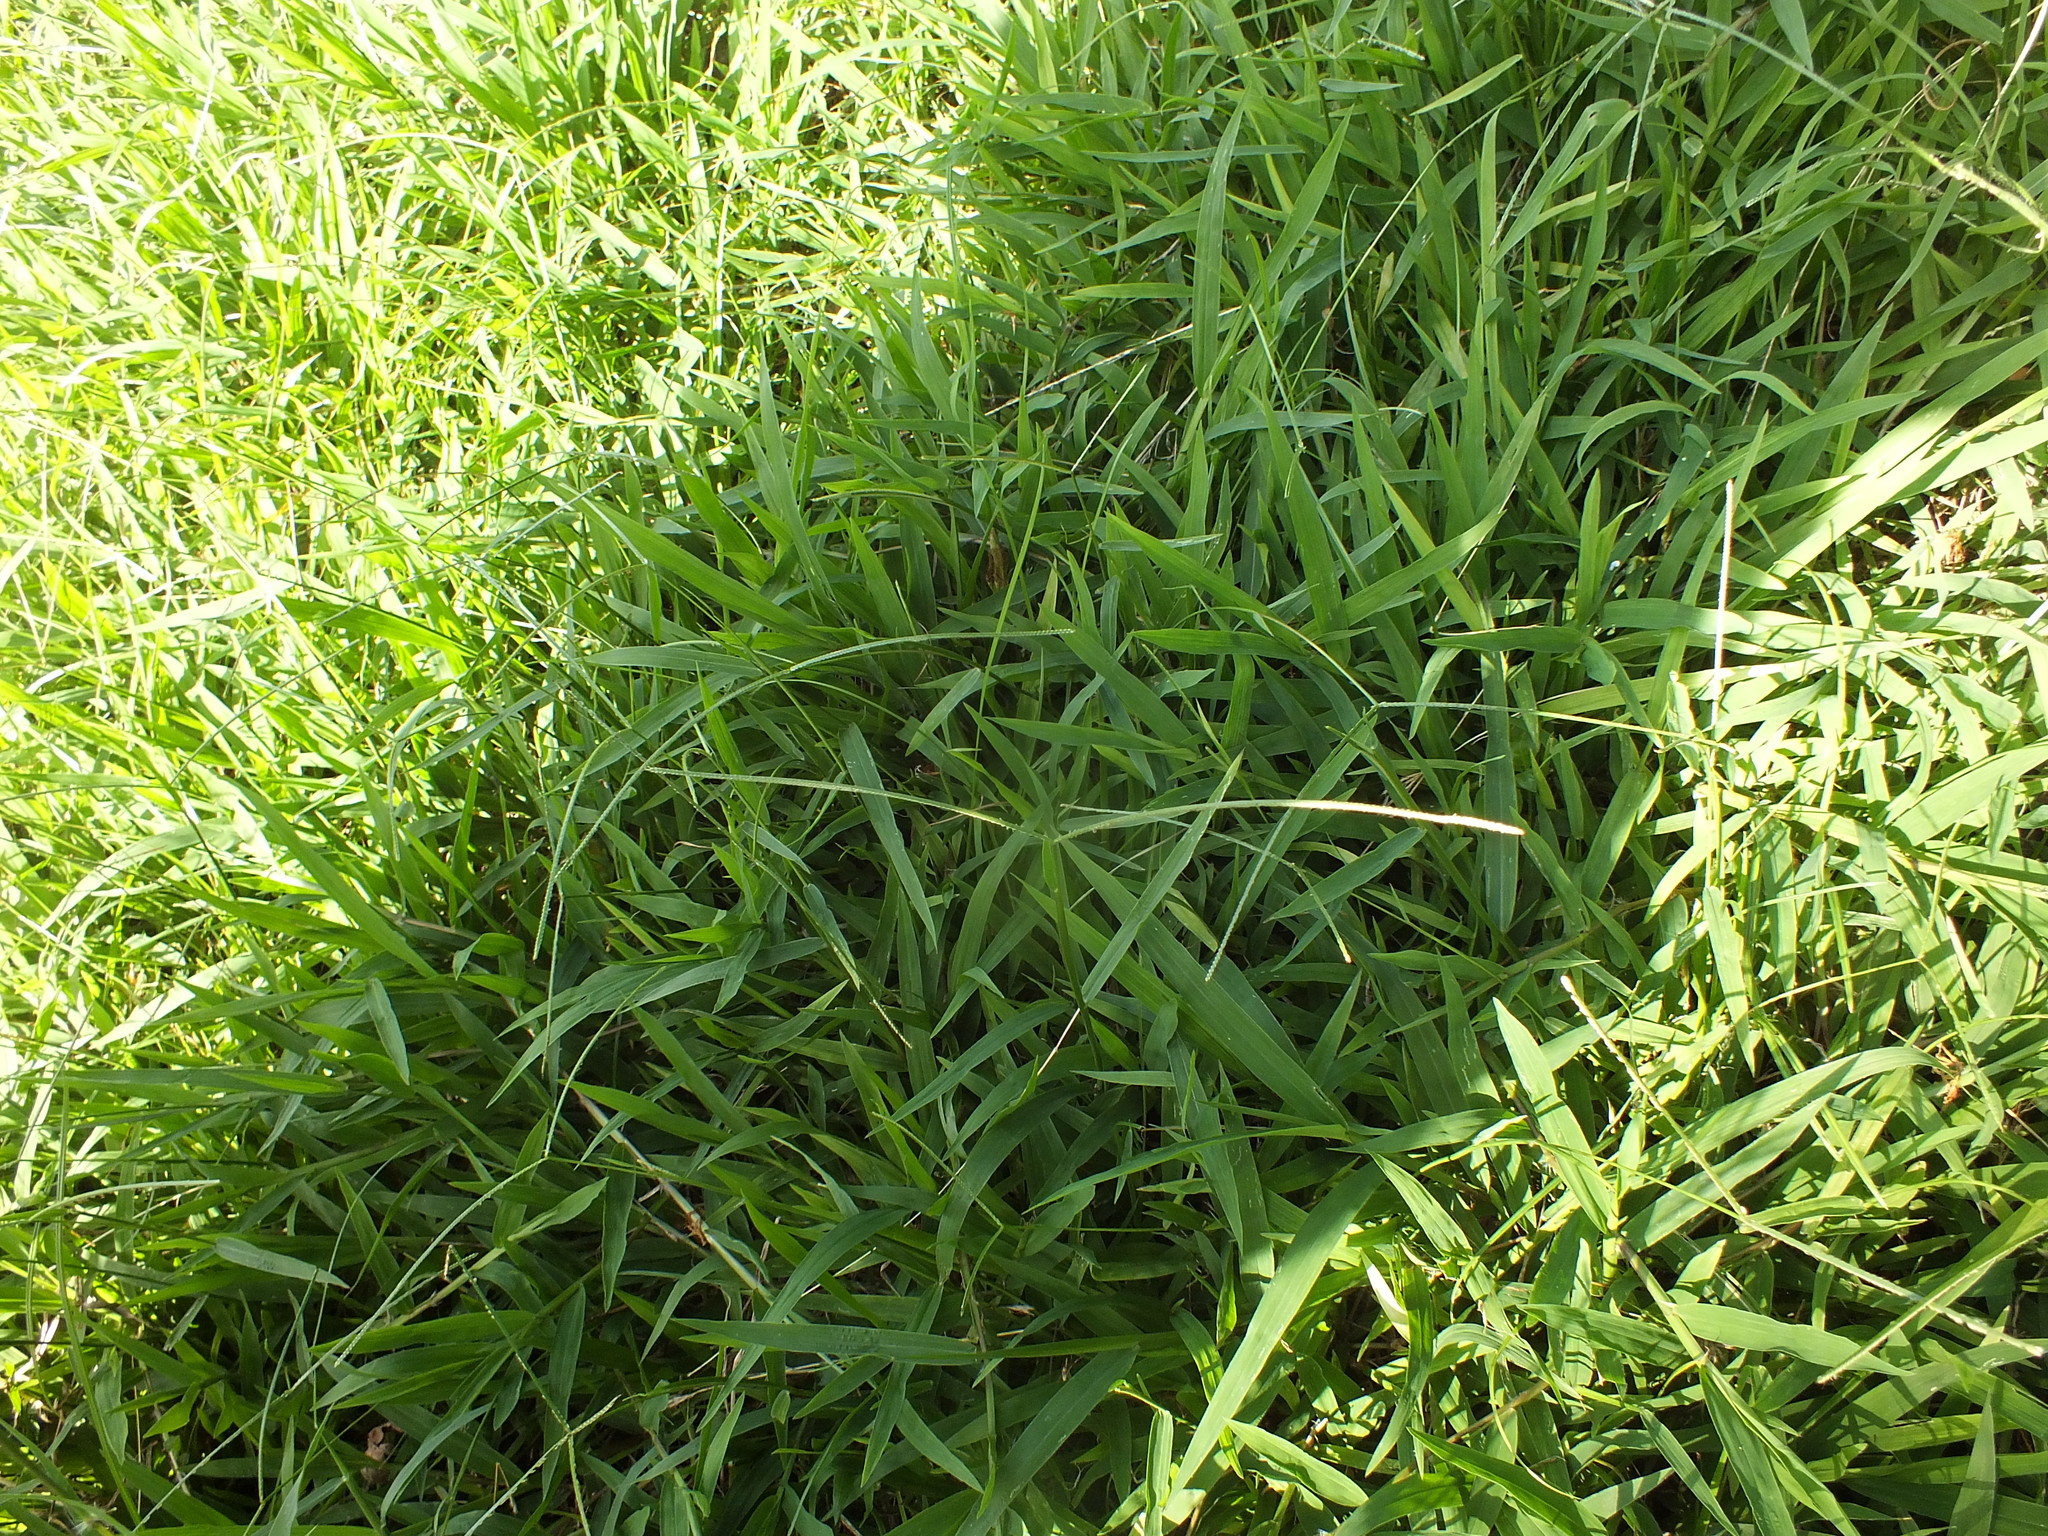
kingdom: Plantae
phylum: Tracheophyta
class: Liliopsida
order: Poales
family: Poaceae
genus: Paspalum
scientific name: Paspalum conjugatum
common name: Hilograss
